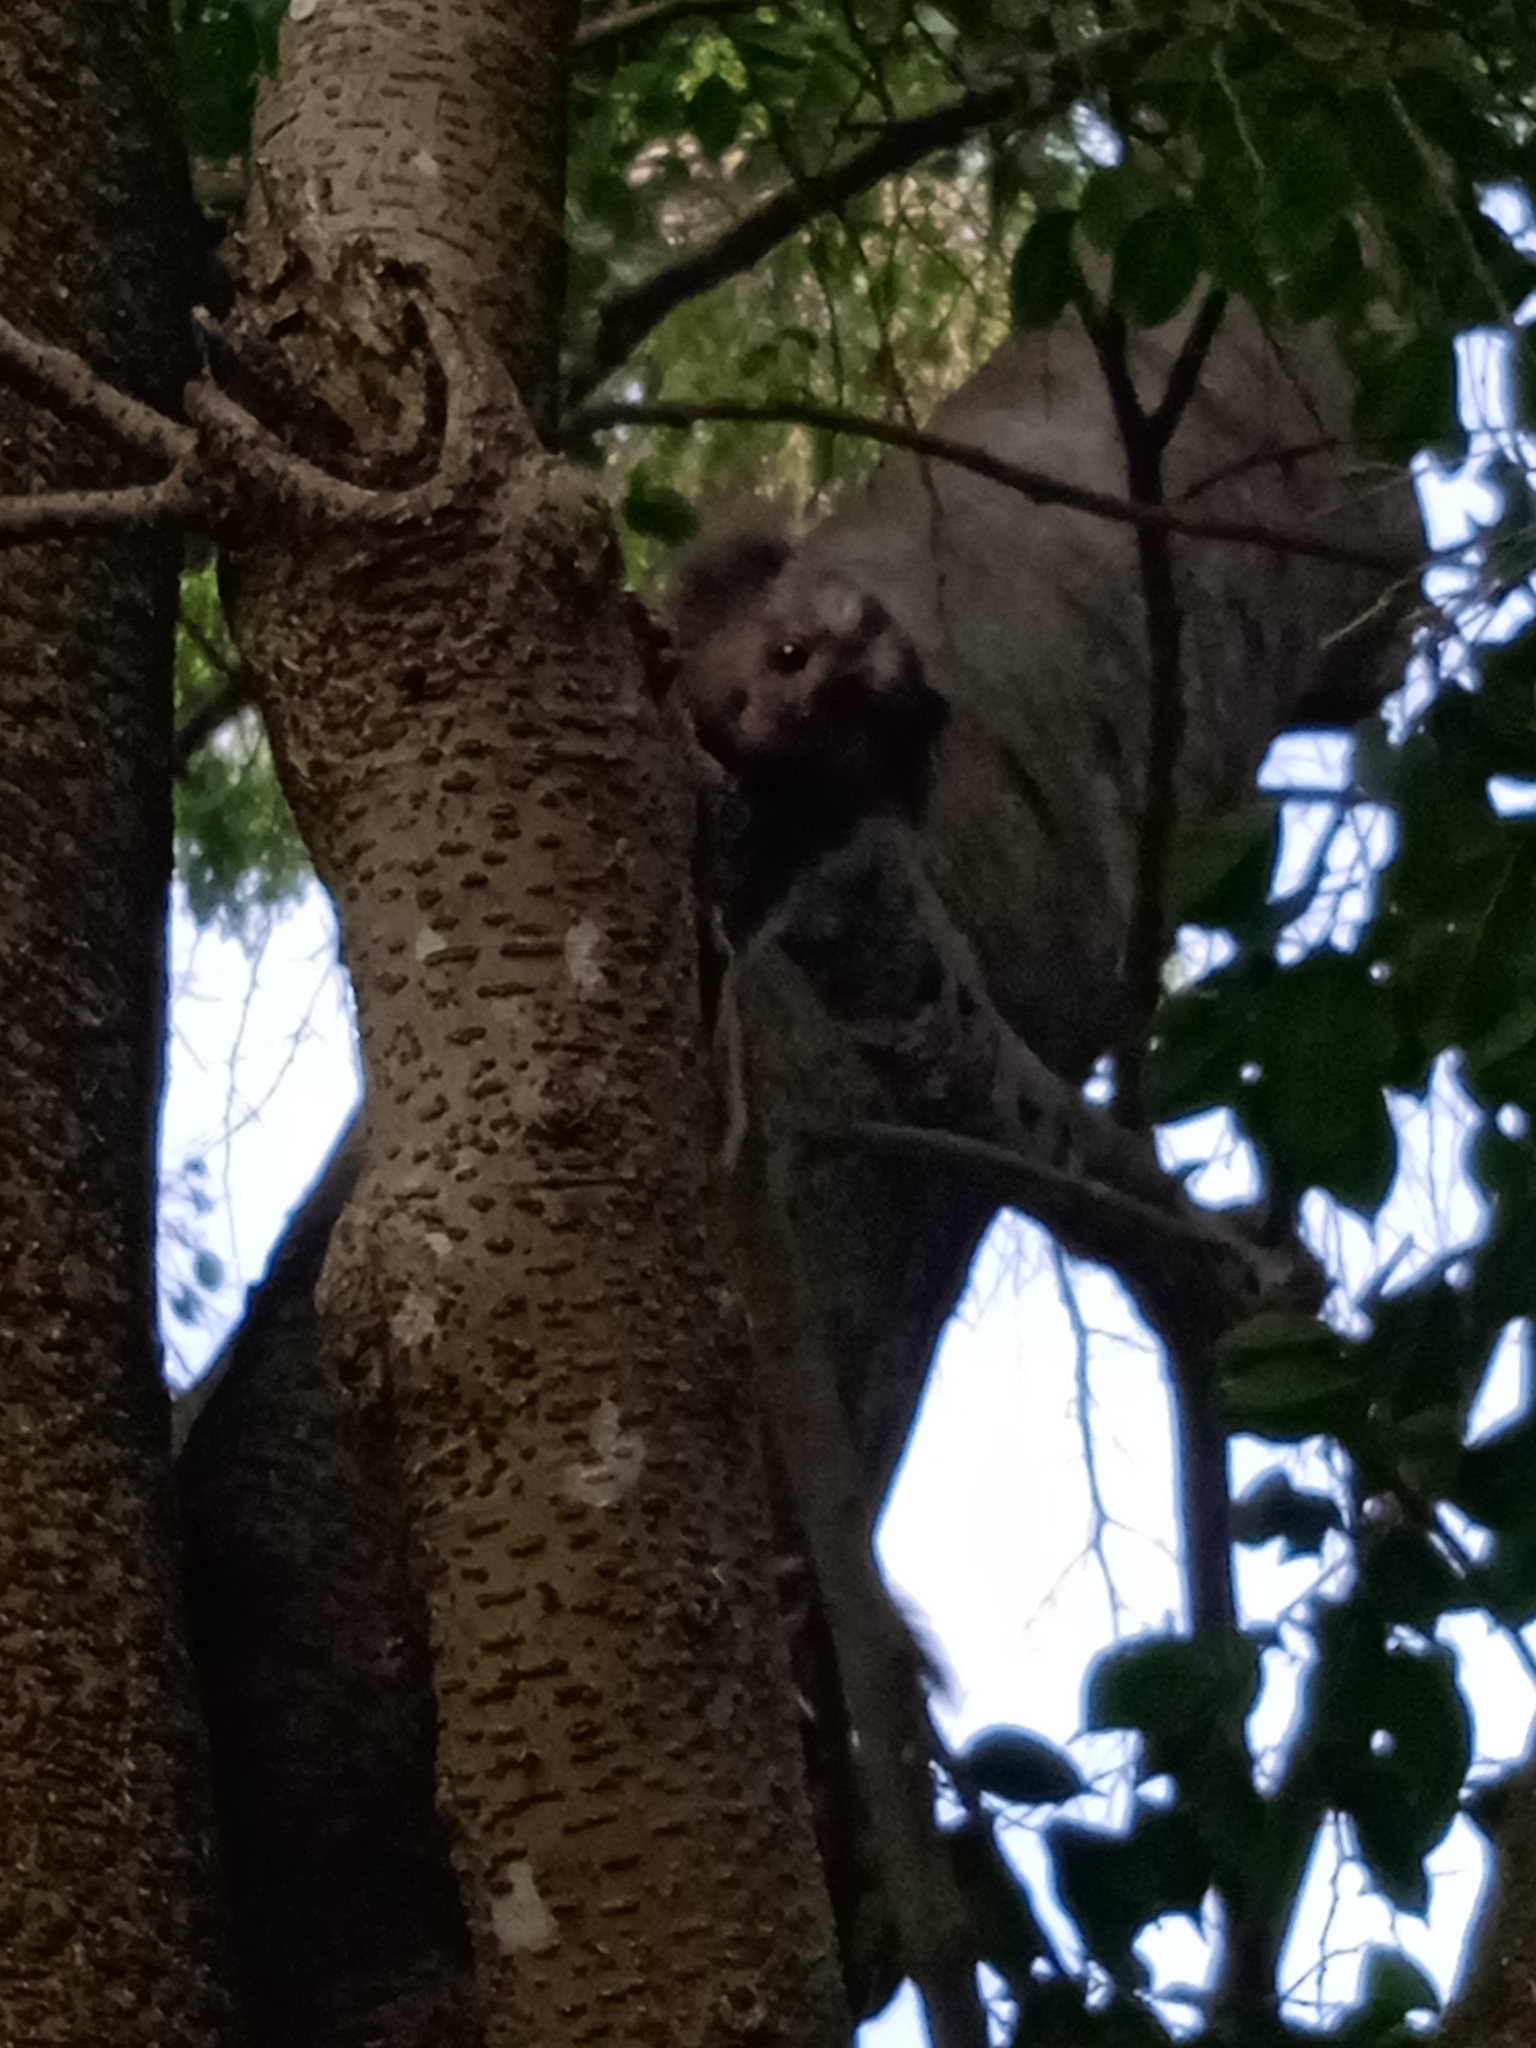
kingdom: Animalia
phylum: Chordata
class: Mammalia
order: Primates
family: Callitrichidae
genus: Callithrix
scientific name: Callithrix penicillata
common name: Black-tufted marmoset
